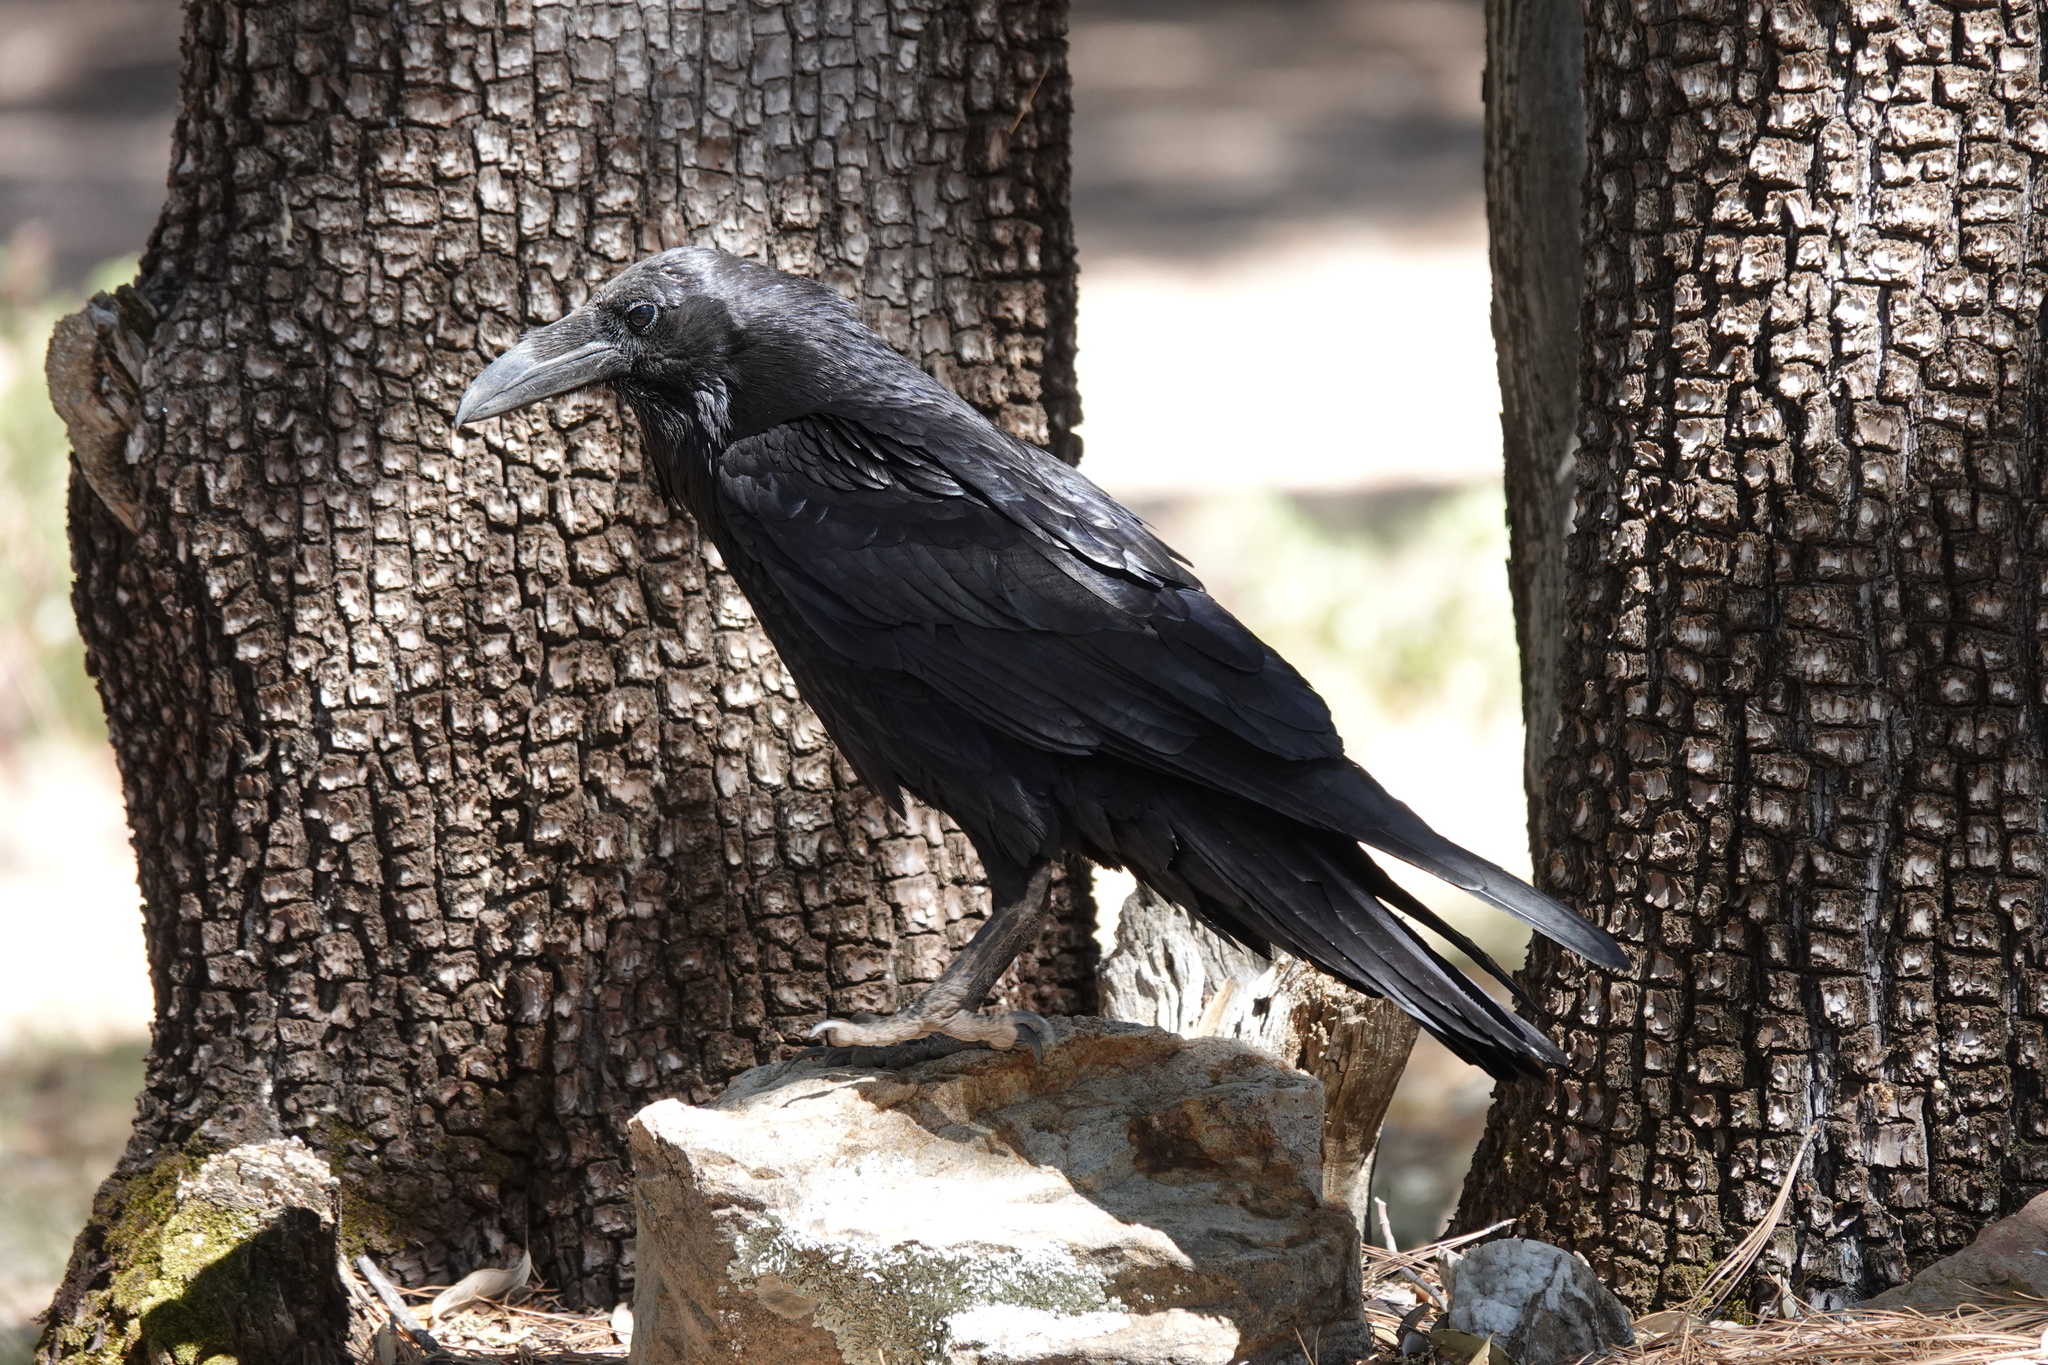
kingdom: Animalia
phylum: Chordata
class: Aves
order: Passeriformes
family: Corvidae
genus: Corvus
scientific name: Corvus corax
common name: Common raven
